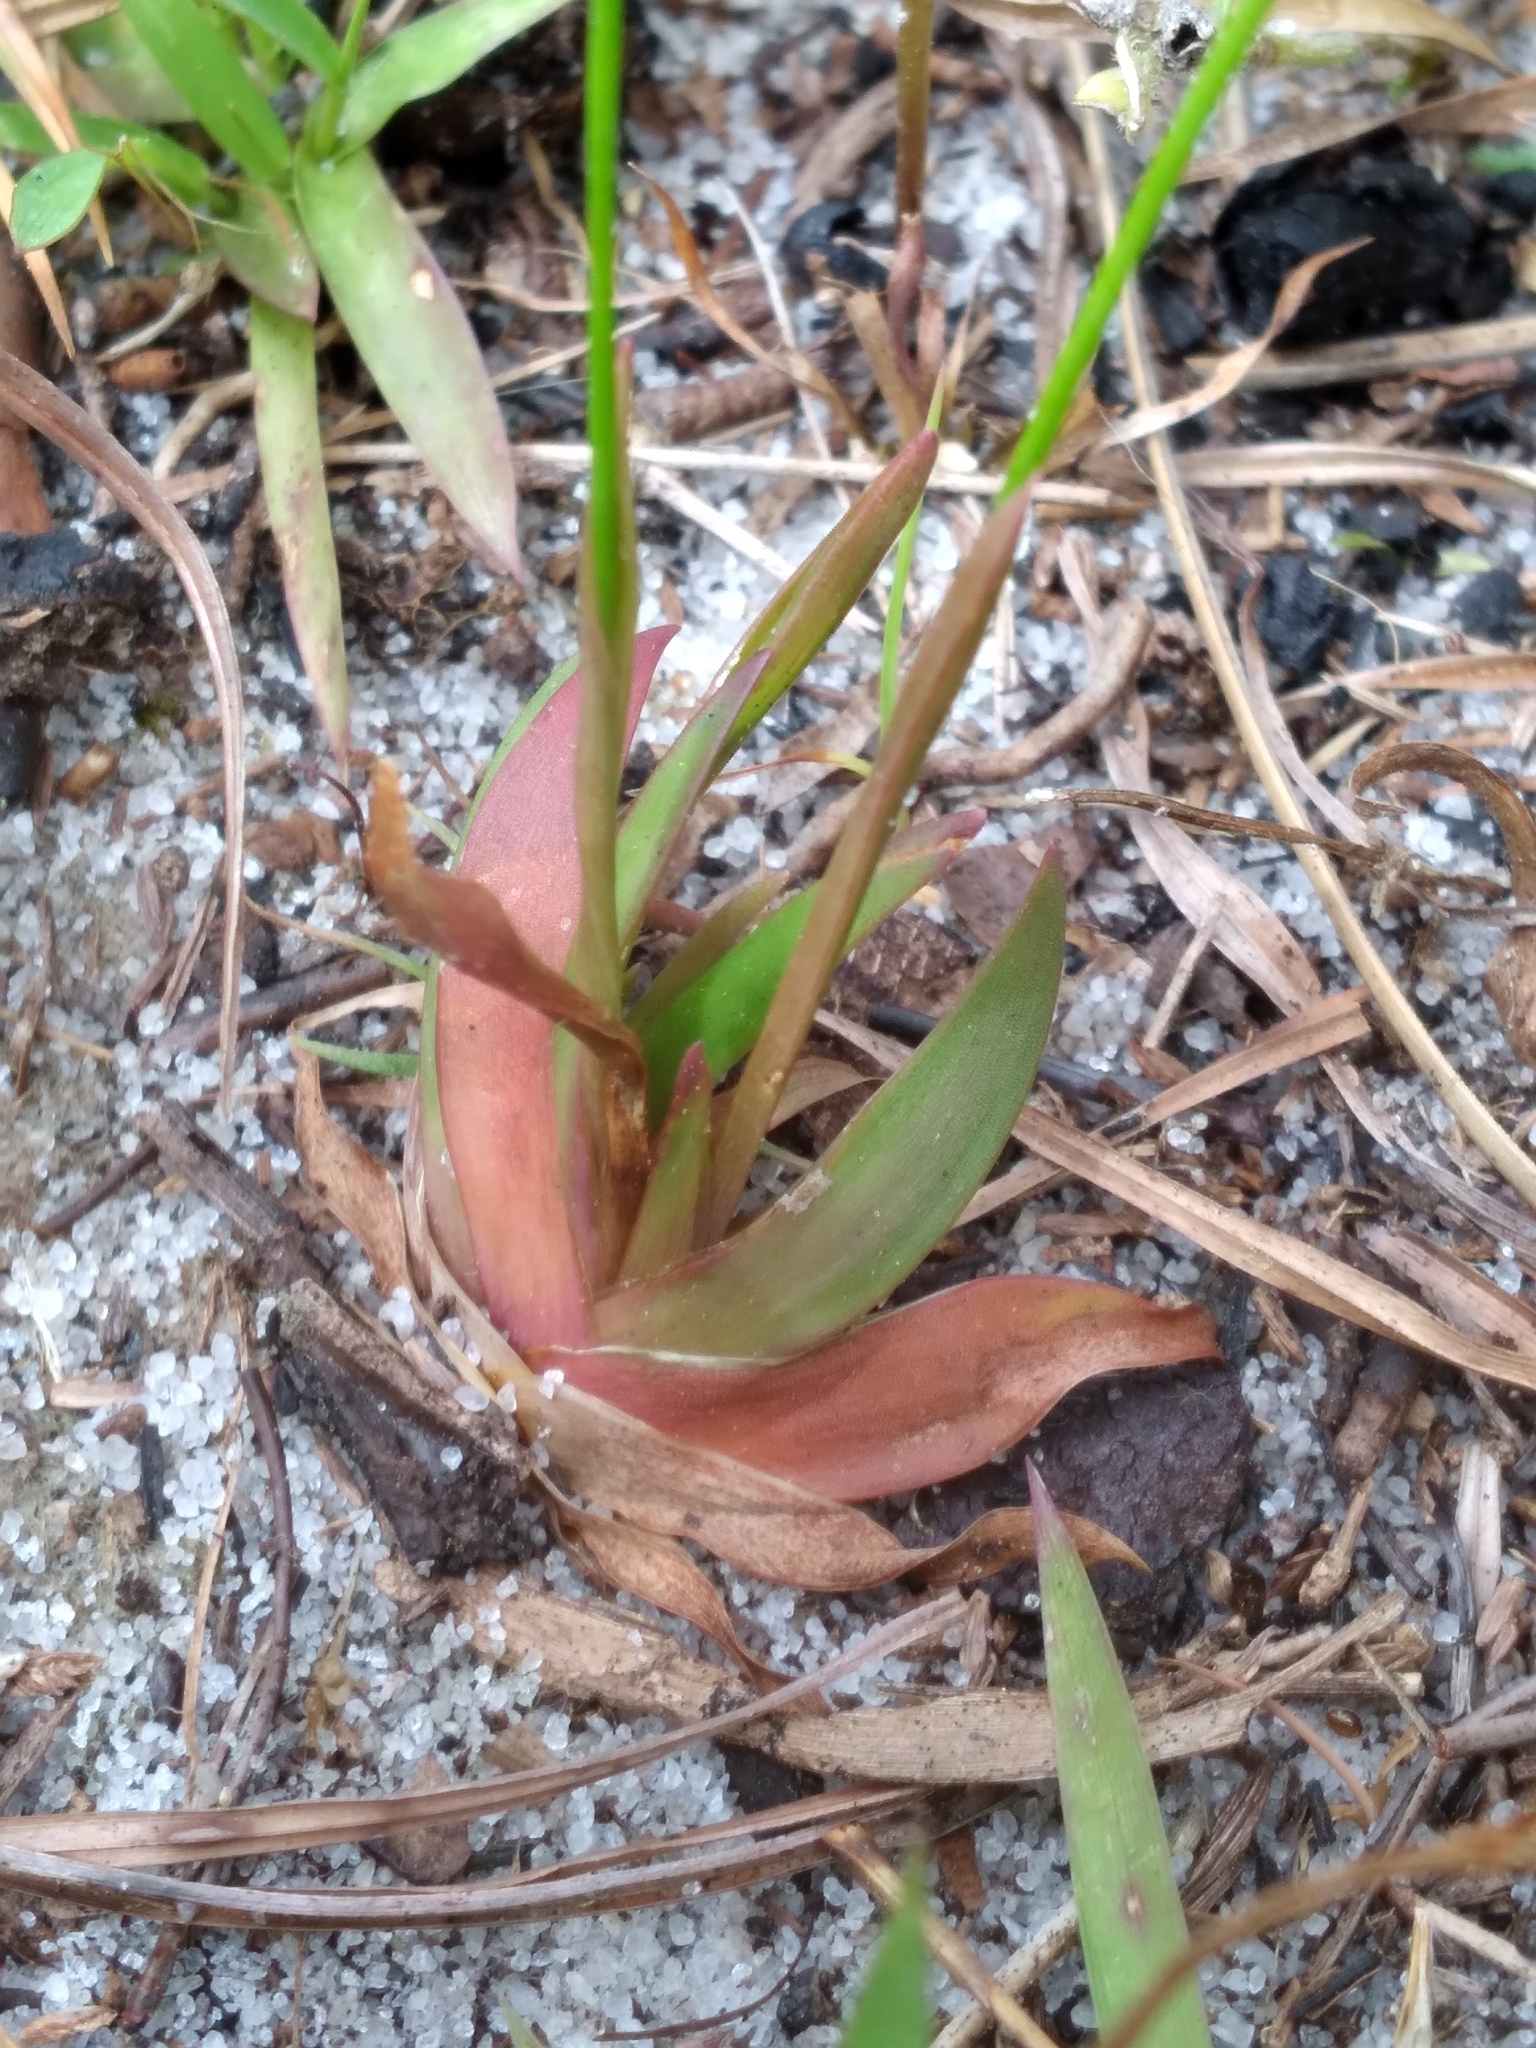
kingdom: Plantae
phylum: Tracheophyta
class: Liliopsida
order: Poales
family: Xyridaceae
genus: Xyris
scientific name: Xyris flabelliformis
